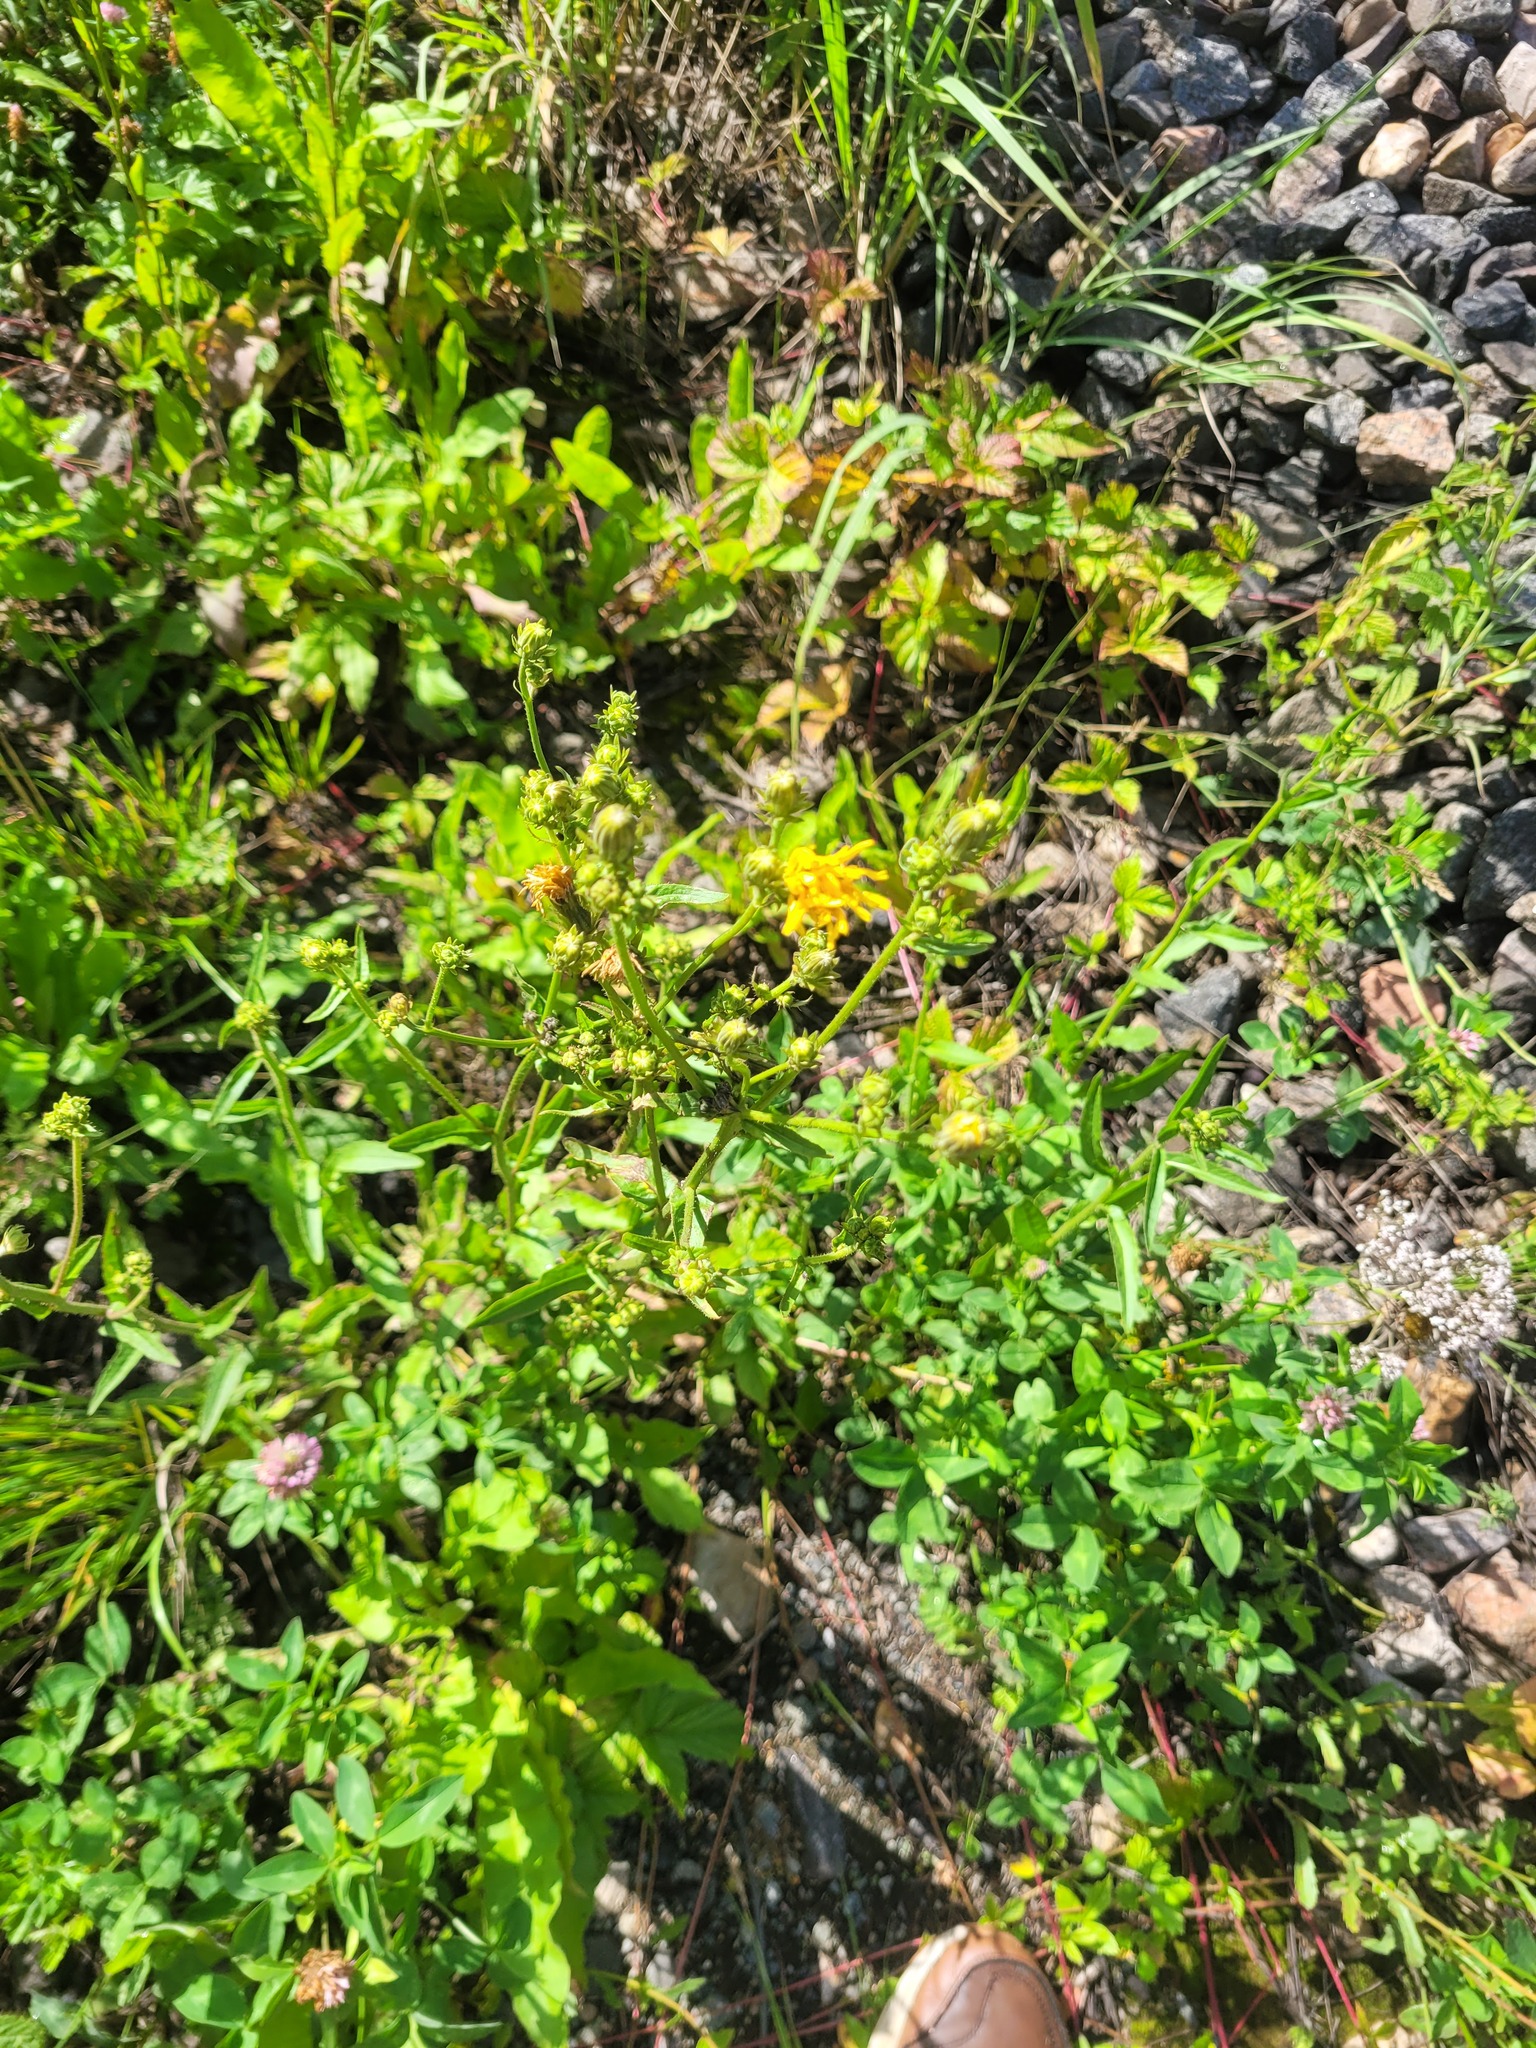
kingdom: Plantae
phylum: Tracheophyta
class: Magnoliopsida
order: Asterales
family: Asteraceae
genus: Picris
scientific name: Picris hieracioides
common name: Hawkweed oxtongue
